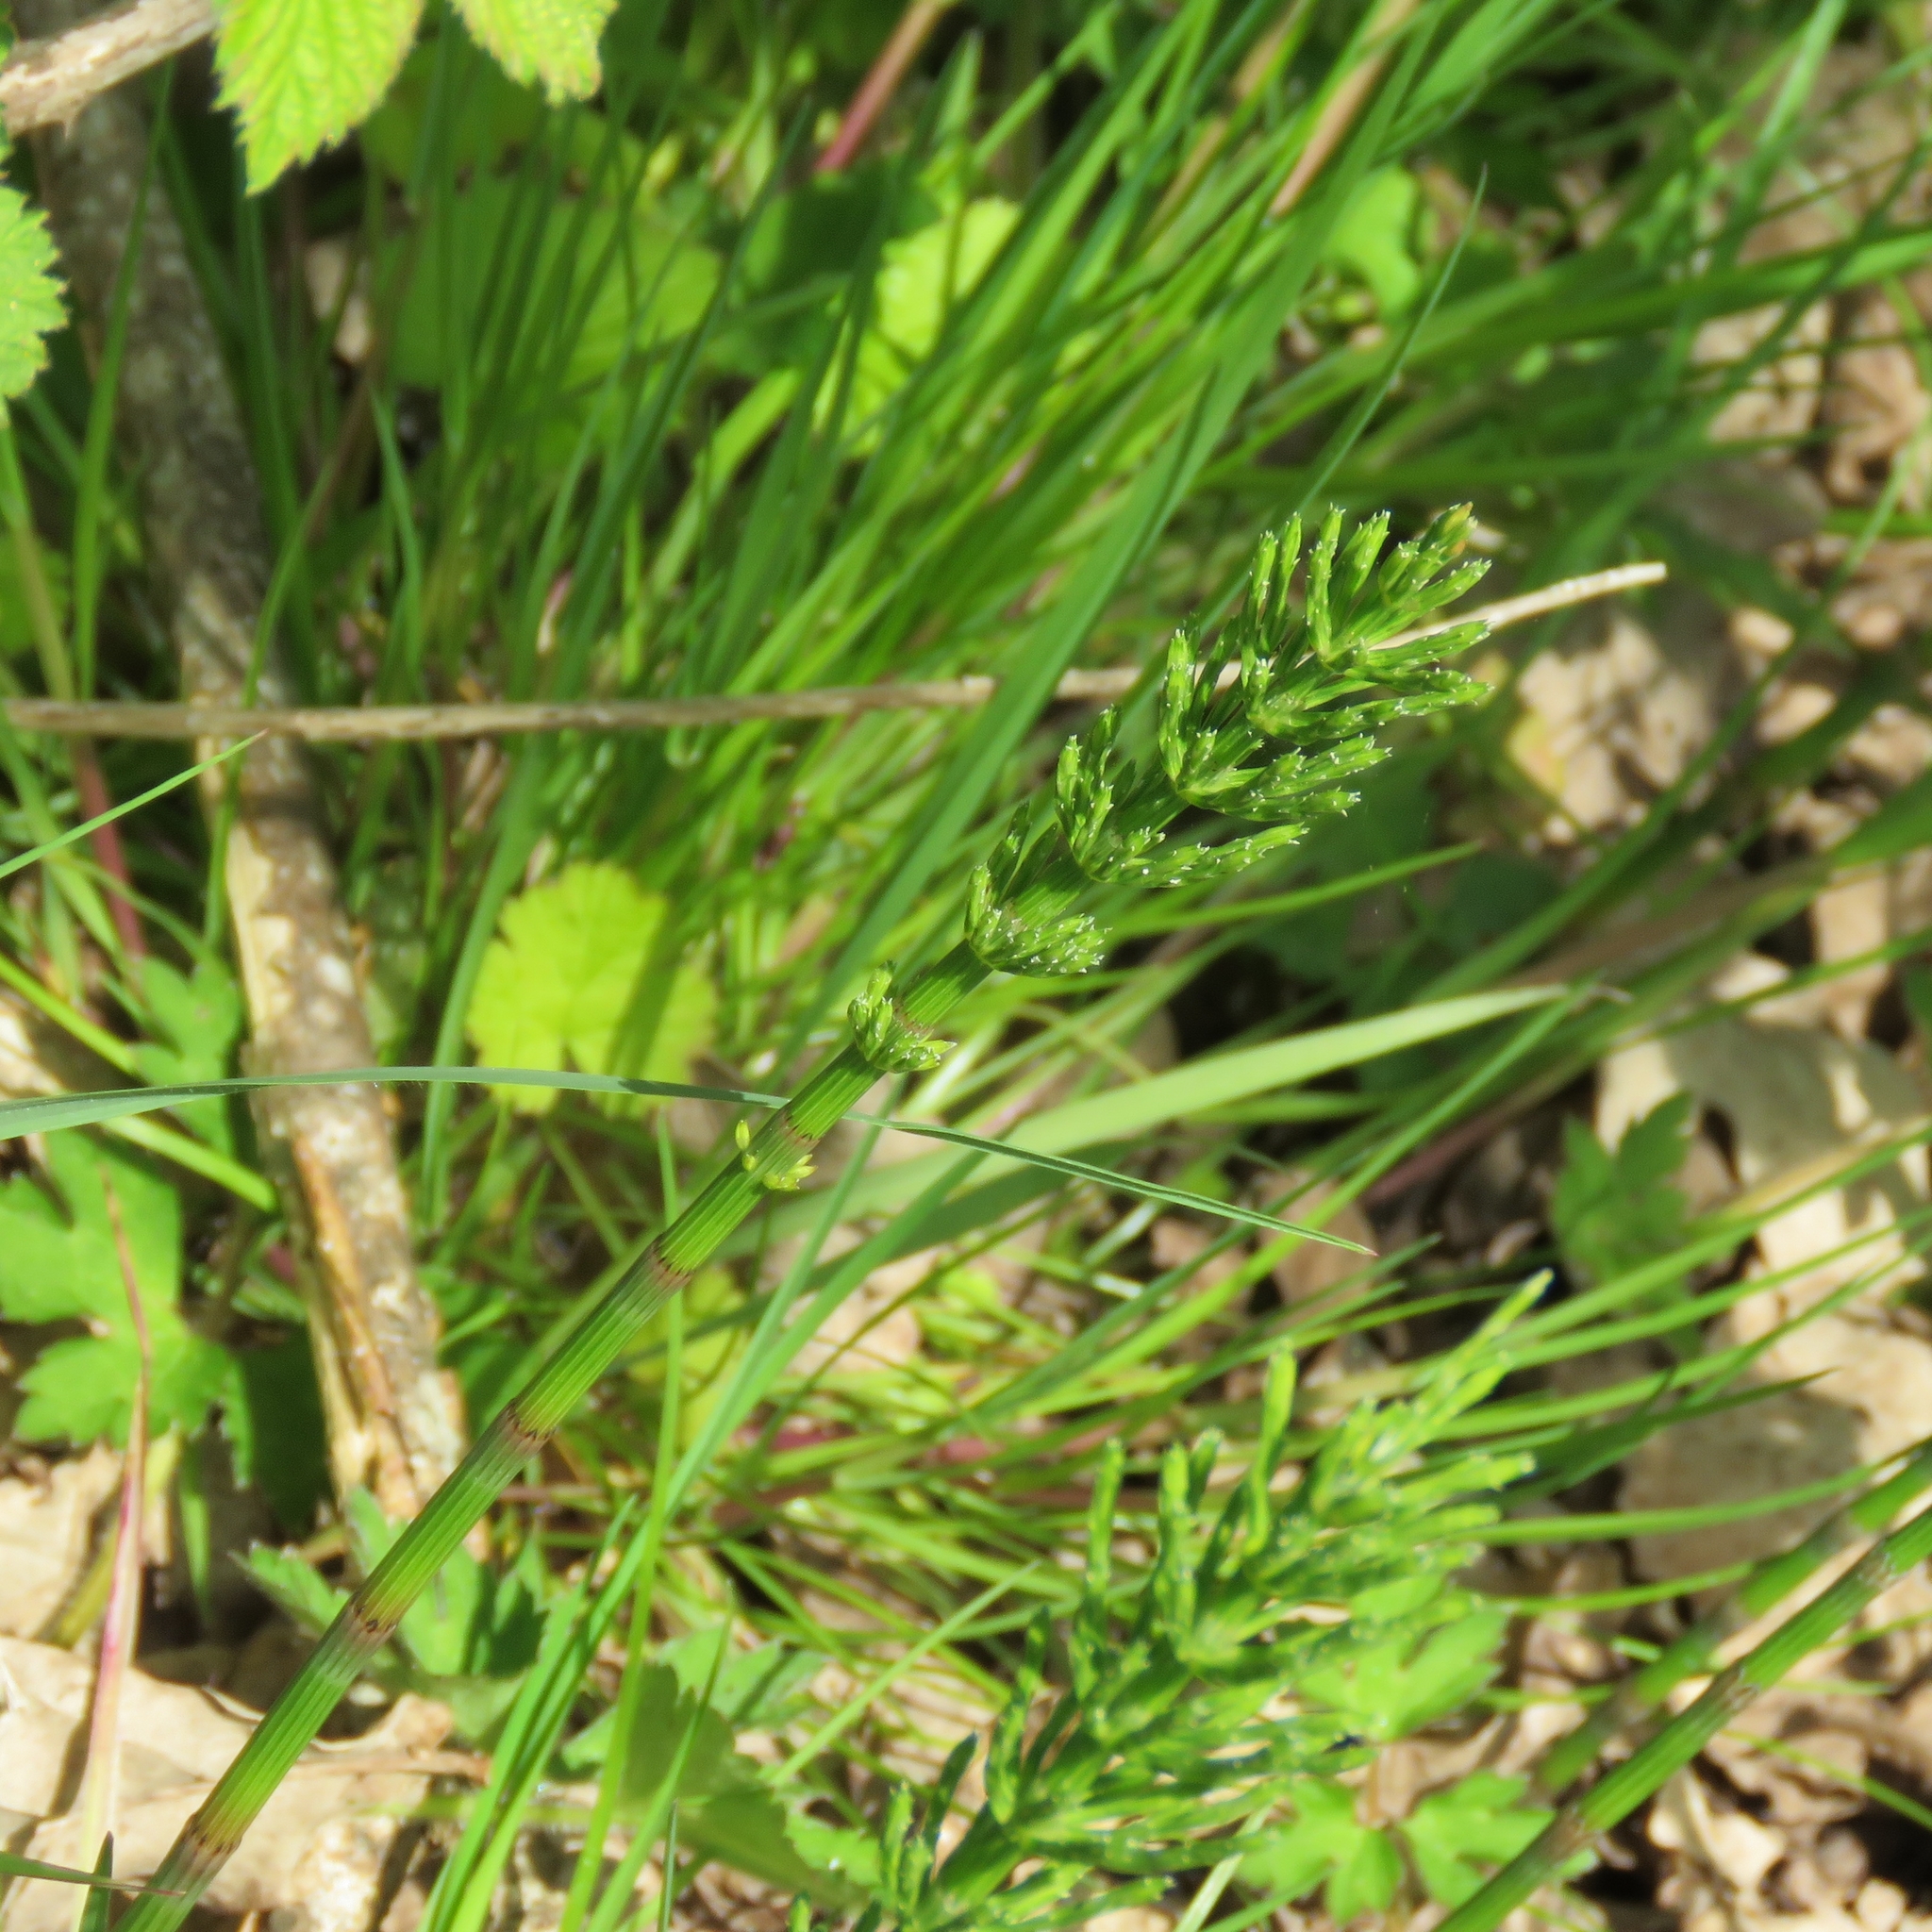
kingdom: Plantae
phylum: Tracheophyta
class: Polypodiopsida
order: Equisetales
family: Equisetaceae
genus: Equisetum
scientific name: Equisetum arvense
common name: Field horsetail
